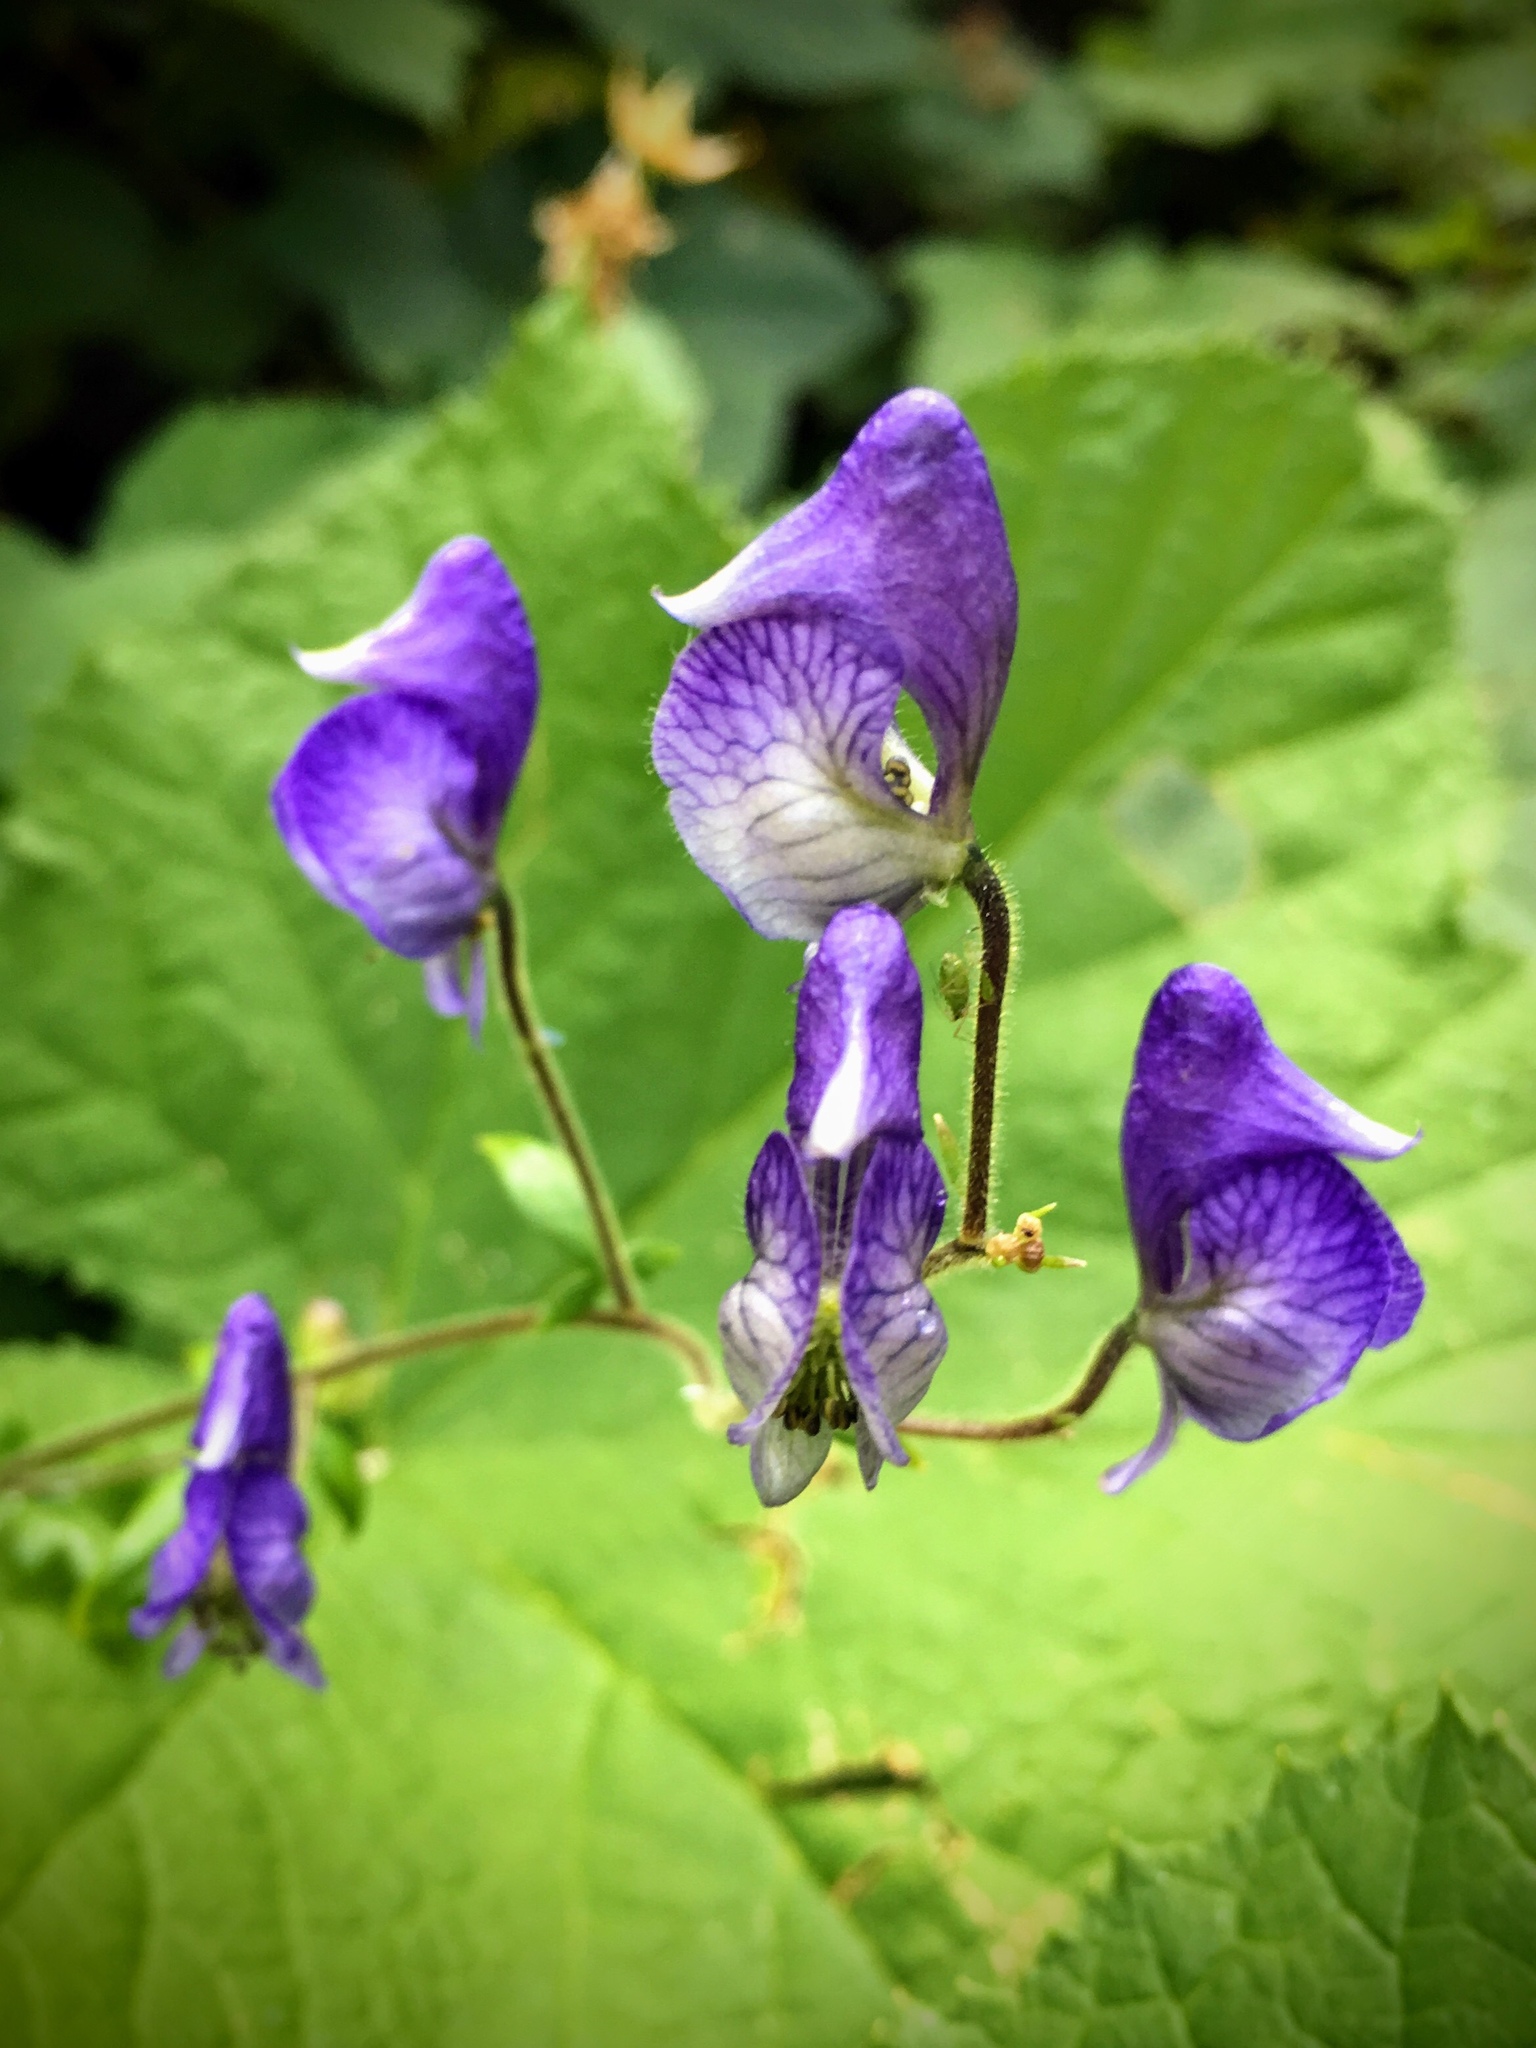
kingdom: Plantae
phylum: Tracheophyta
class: Magnoliopsida
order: Ranunculales
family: Ranunculaceae
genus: Aconitum
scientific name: Aconitum columbianum
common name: Columbia aconite
